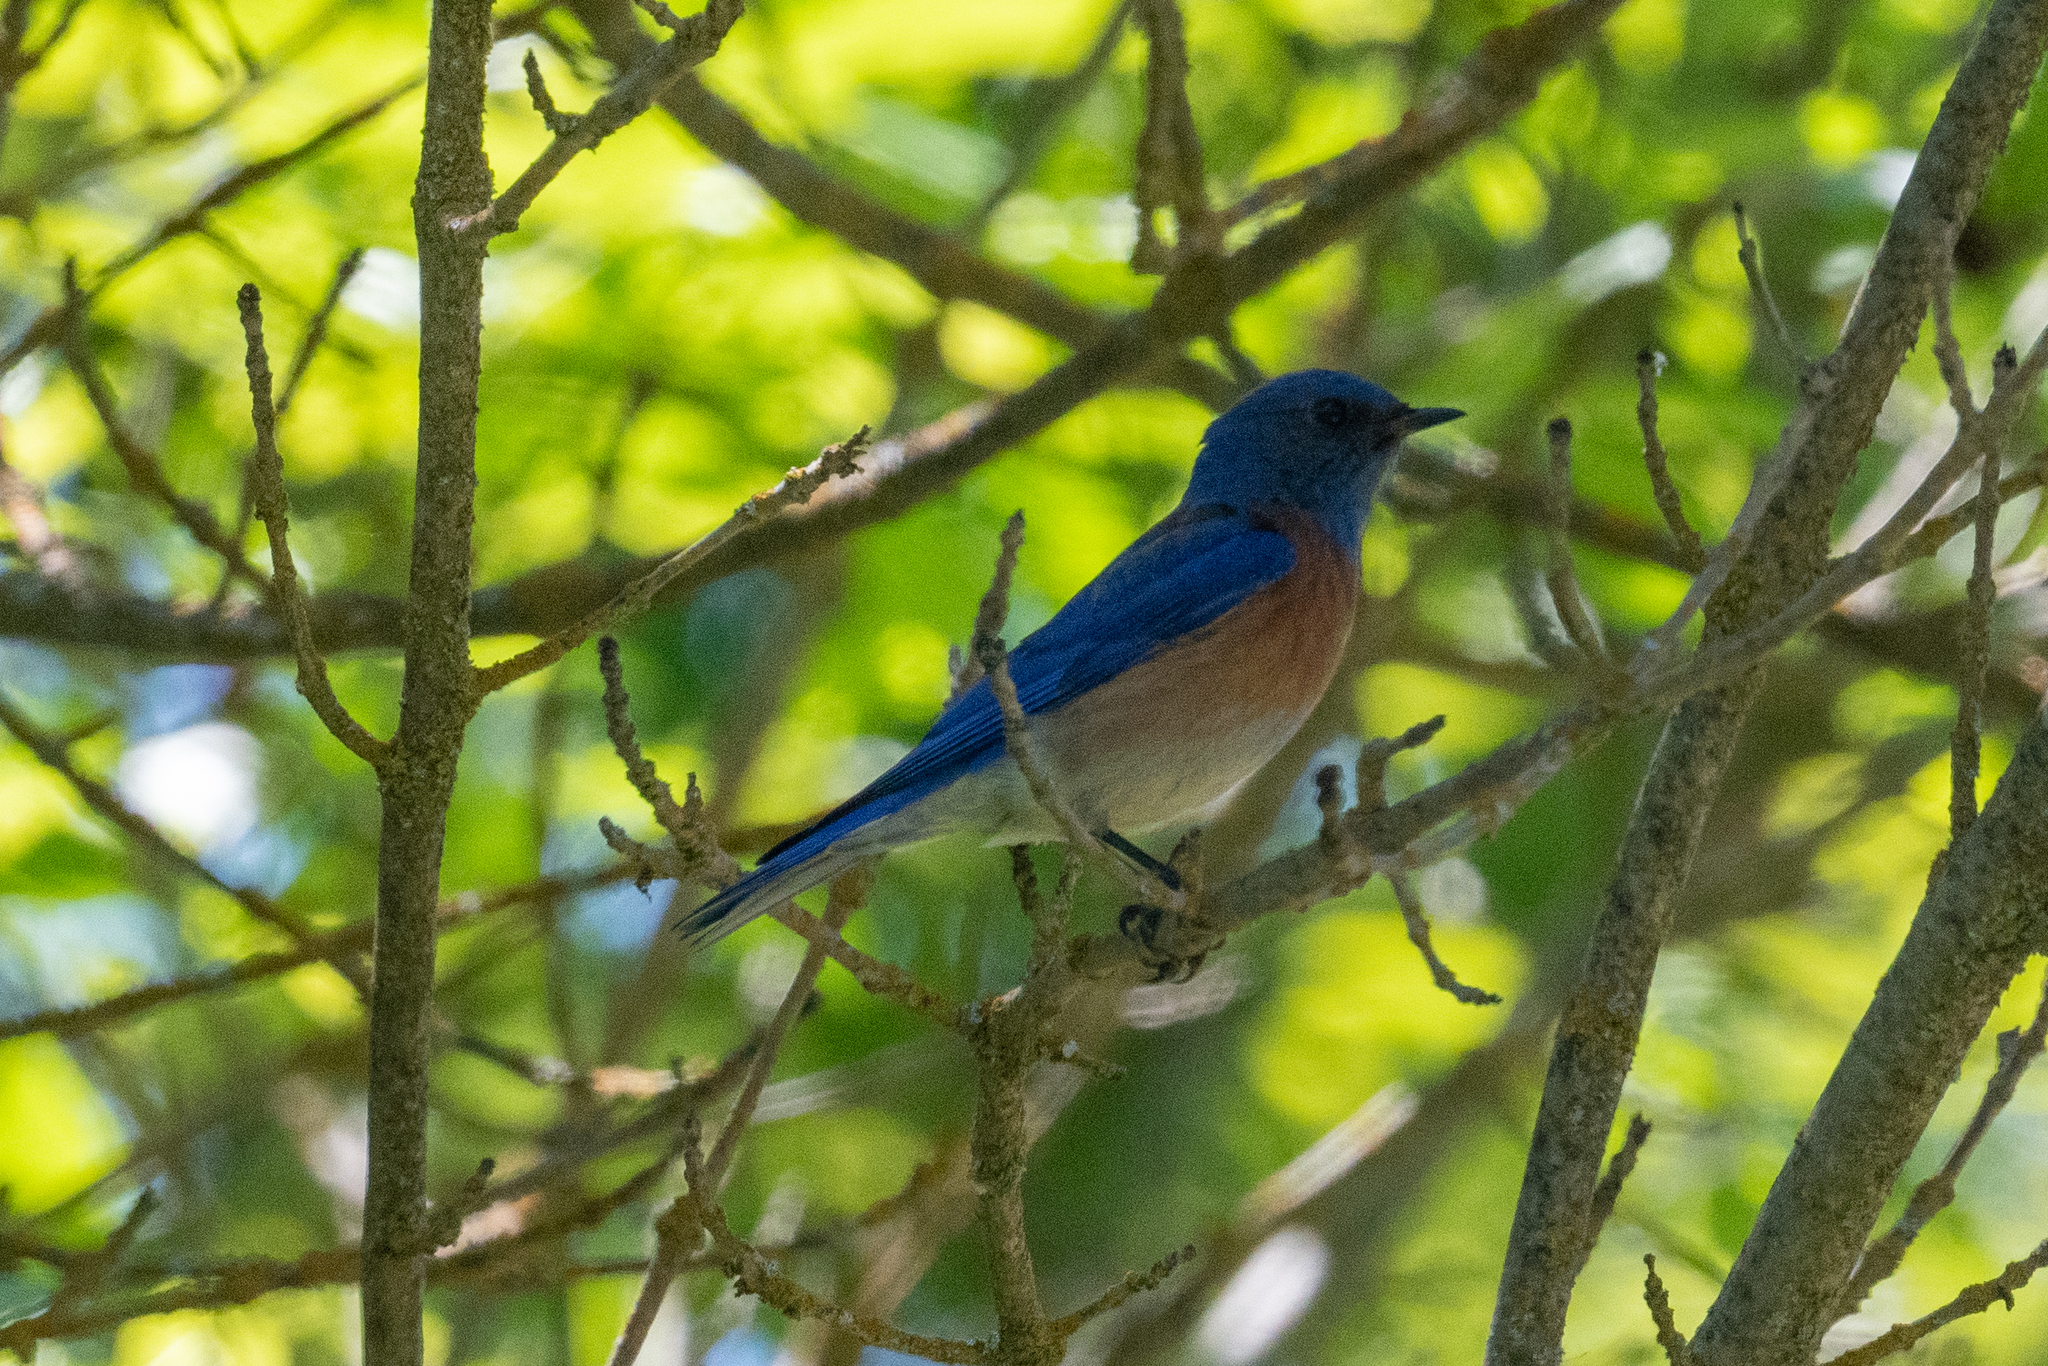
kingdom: Animalia
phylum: Chordata
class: Aves
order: Passeriformes
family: Turdidae
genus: Sialia
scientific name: Sialia mexicana
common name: Western bluebird
